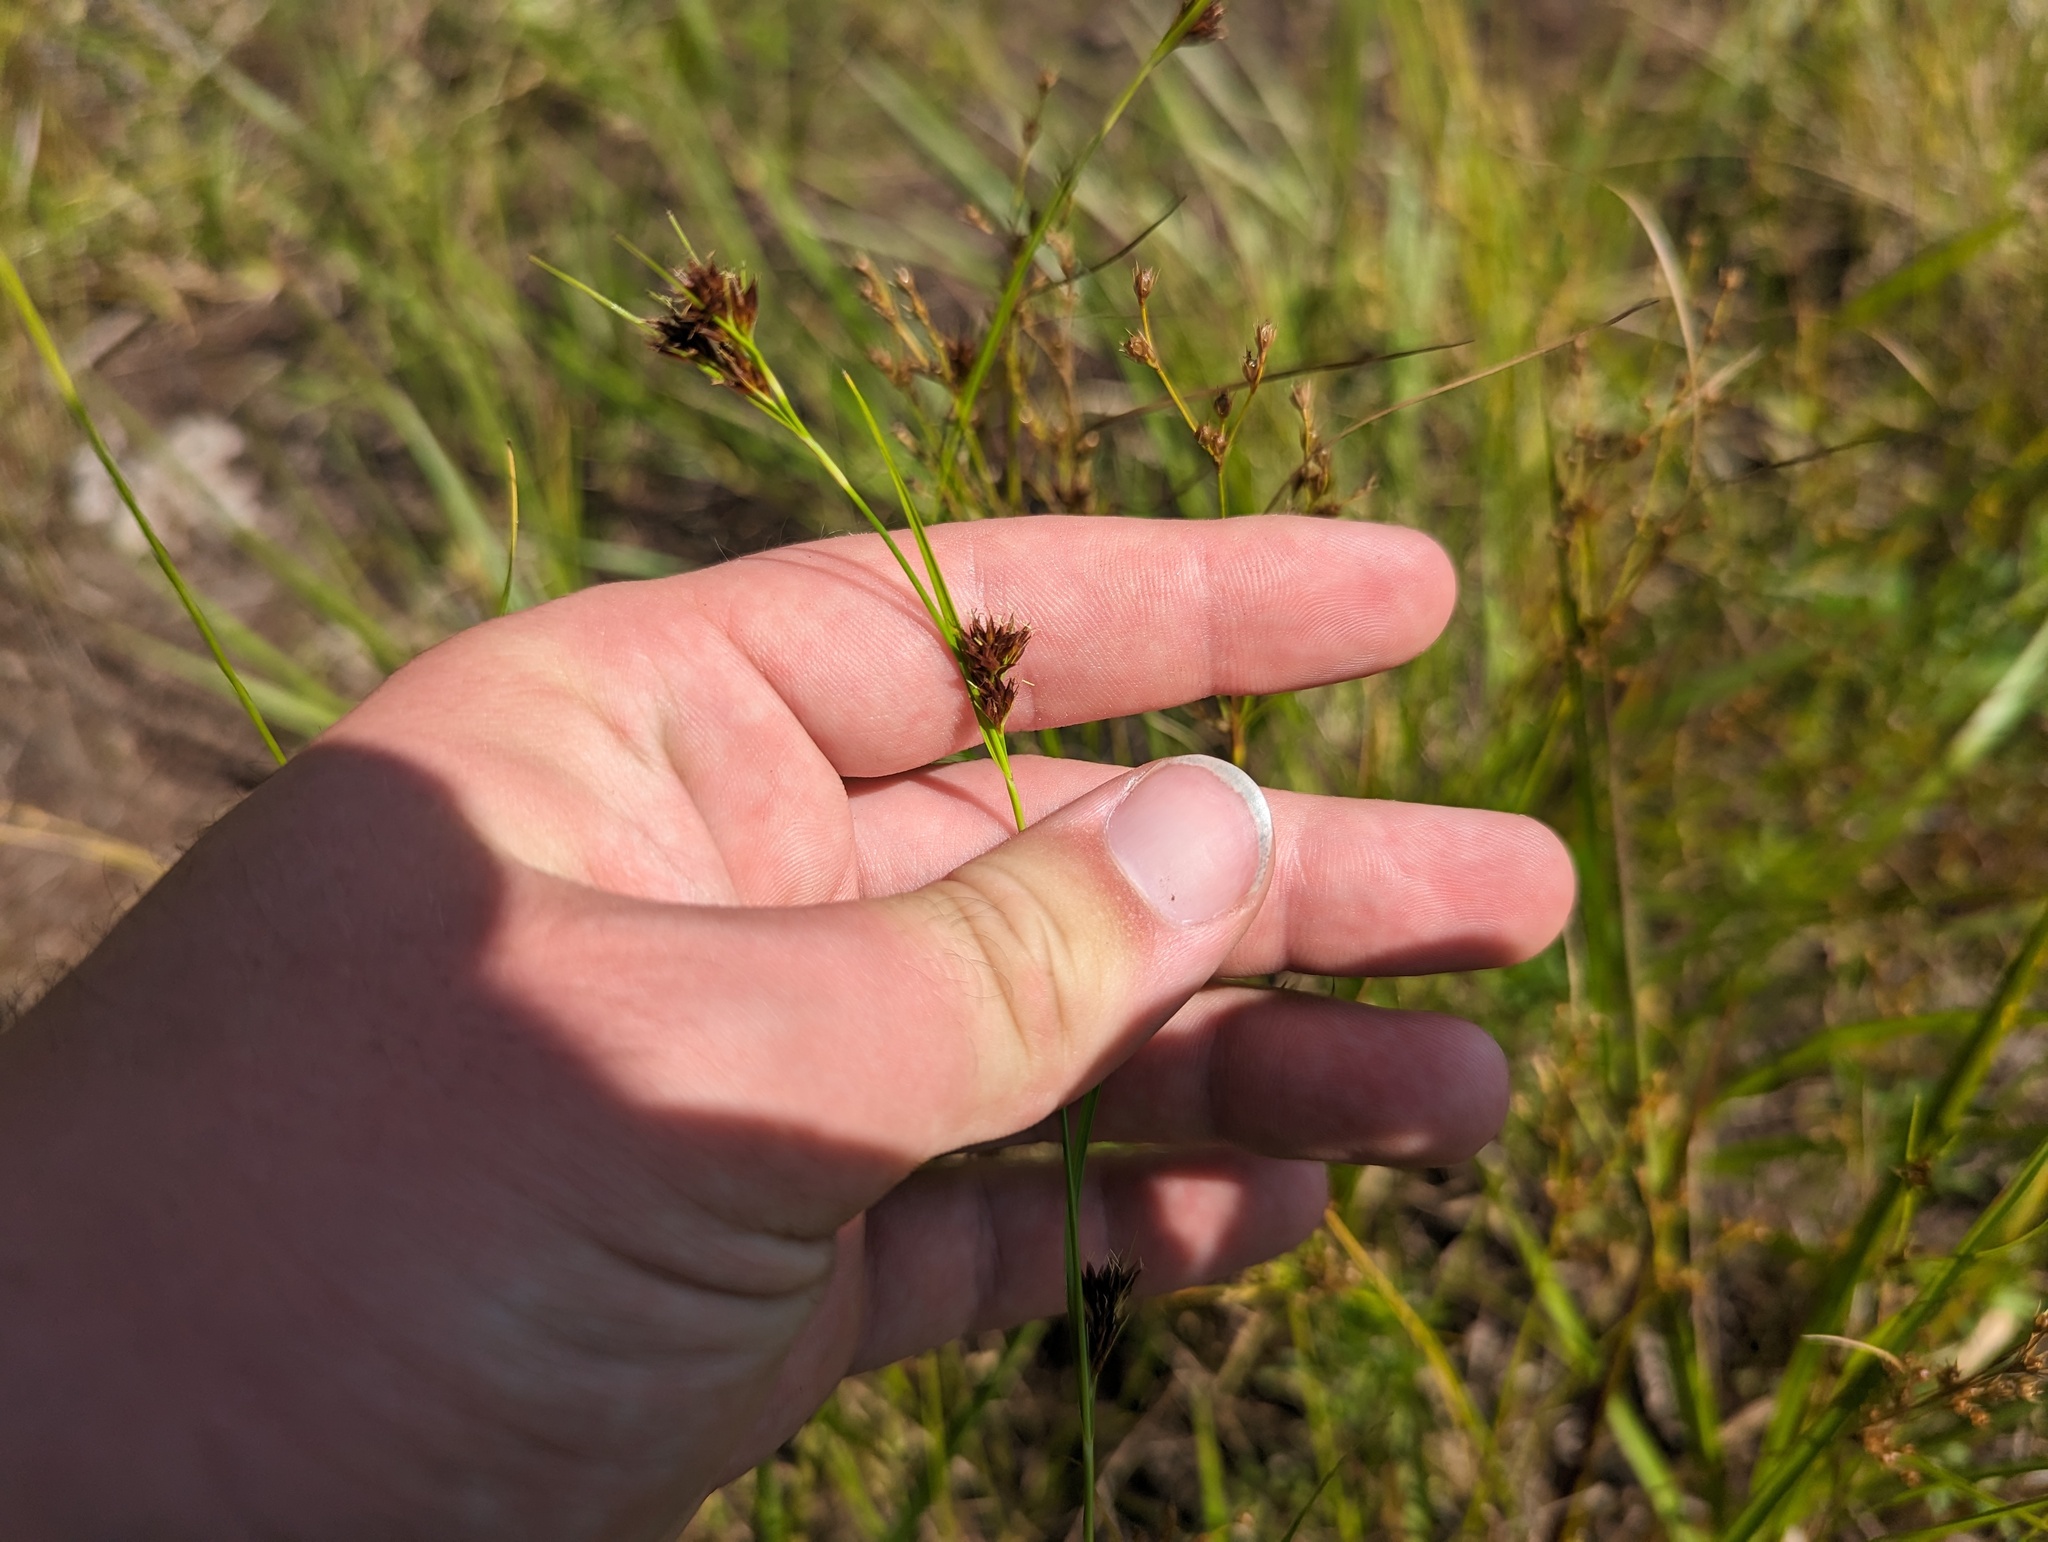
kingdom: Plantae
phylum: Tracheophyta
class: Liliopsida
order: Poales
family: Cyperaceae
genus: Rhynchospora
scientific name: Rhynchospora capitellata
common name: Brownish beaksedge
